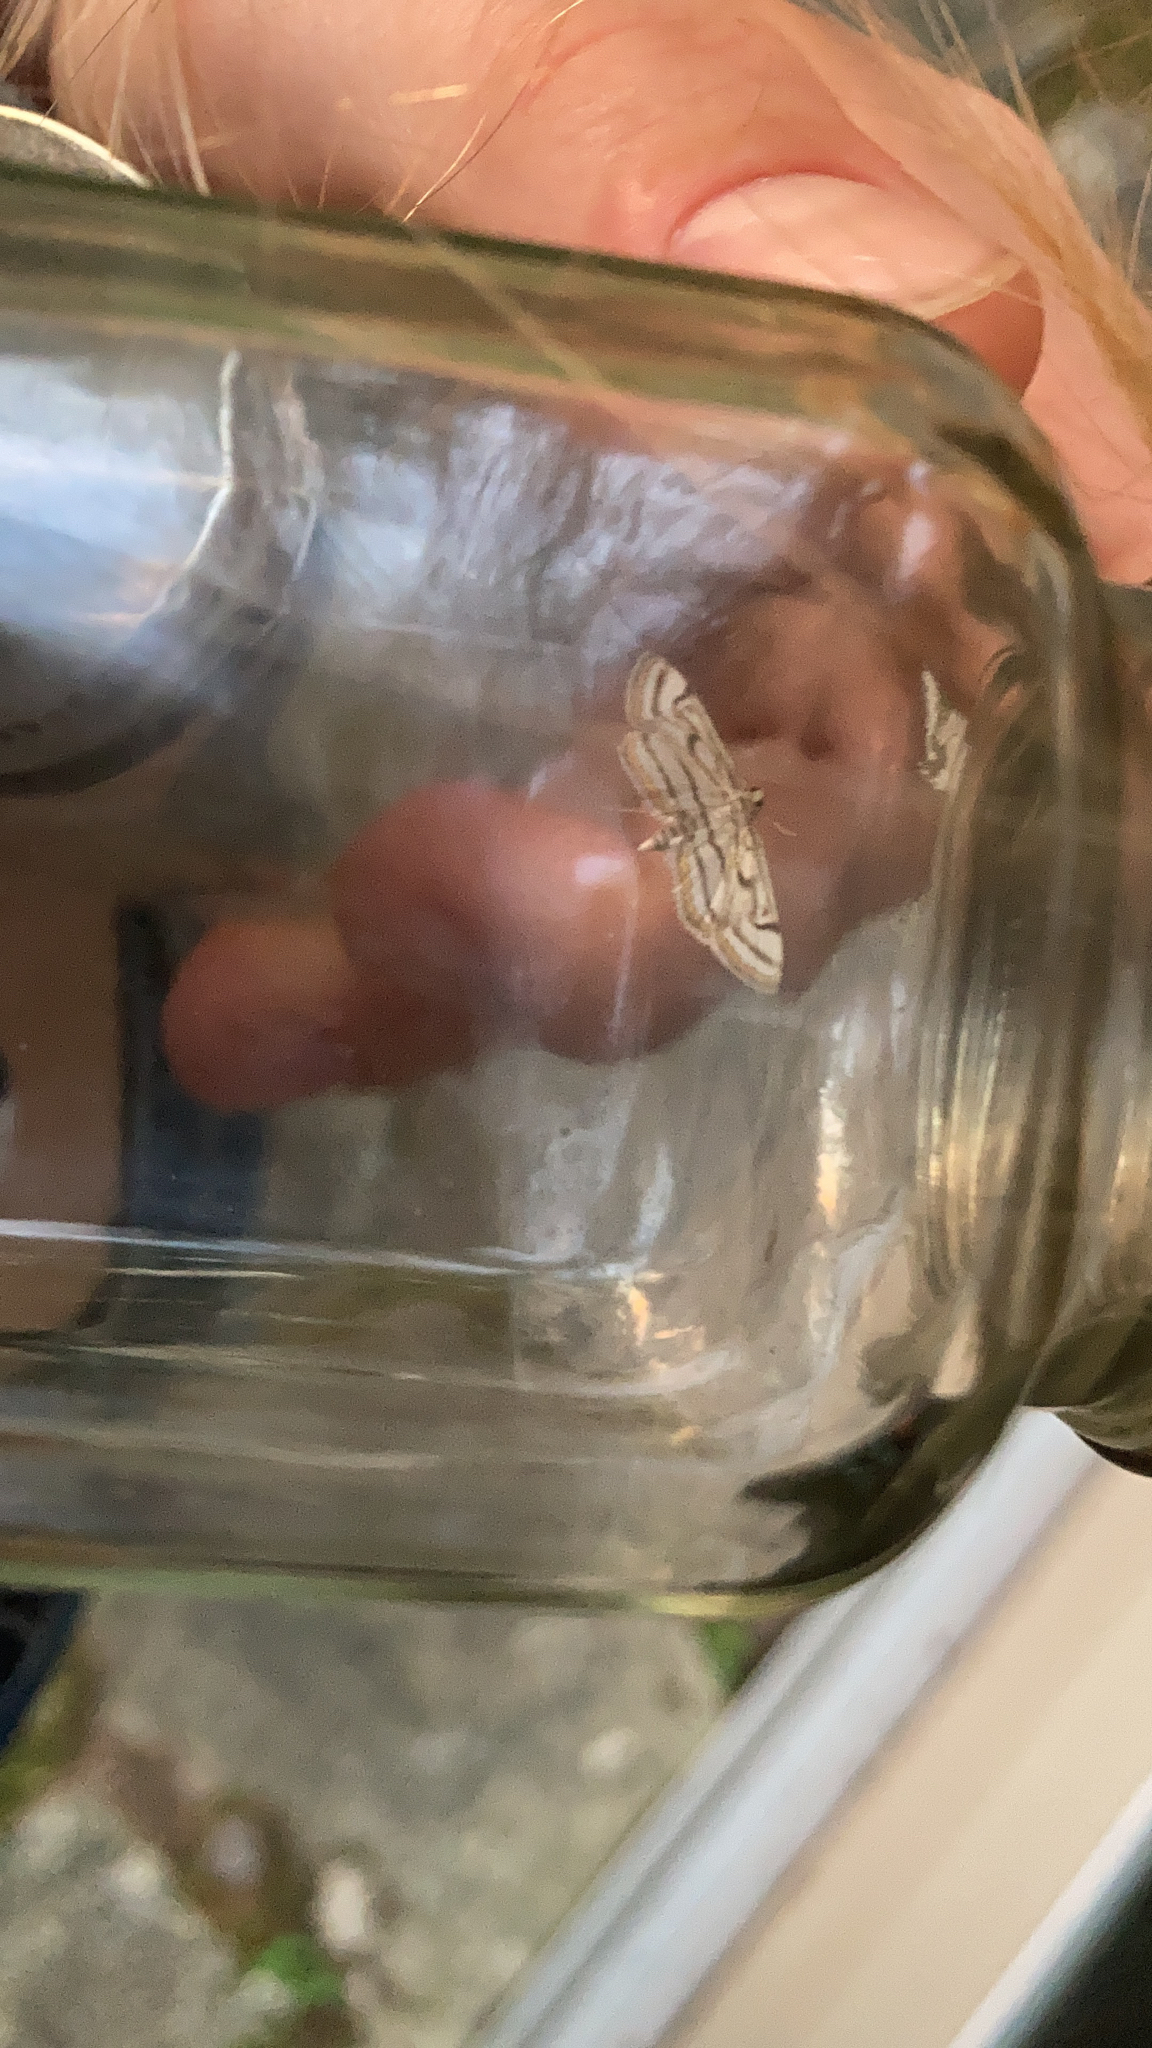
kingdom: Animalia
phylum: Arthropoda
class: Insecta
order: Lepidoptera
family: Crambidae
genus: Parapoynx
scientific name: Parapoynx badiusalis
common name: Chestnut-marked pondweed moth
